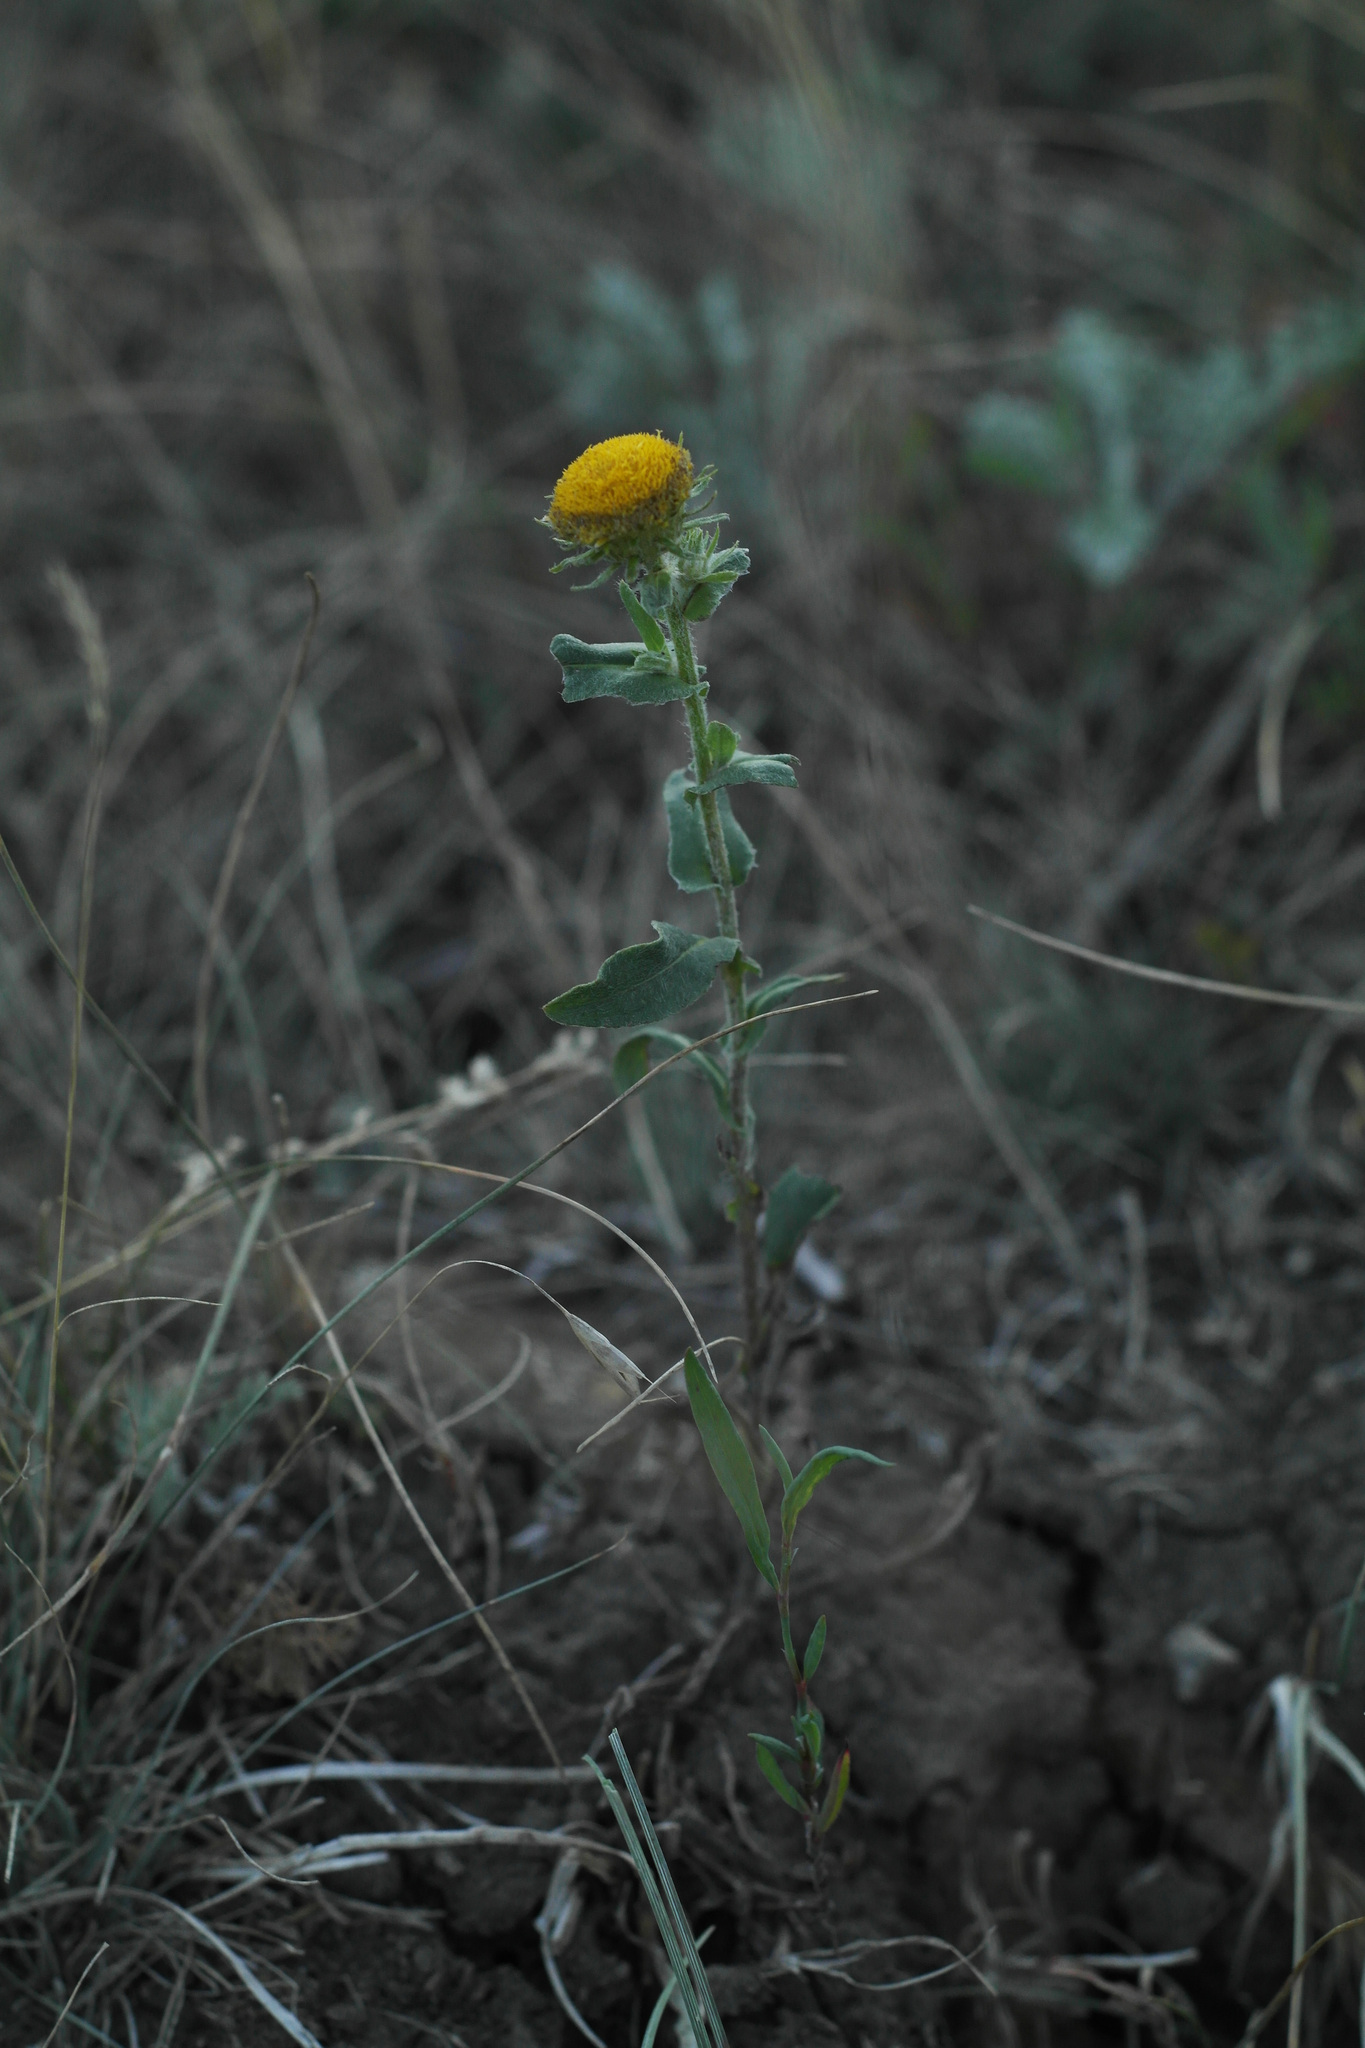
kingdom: Plantae
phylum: Tracheophyta
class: Magnoliopsida
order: Asterales
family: Asteraceae
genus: Pentanema
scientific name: Pentanema britannicum
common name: British elecampane
